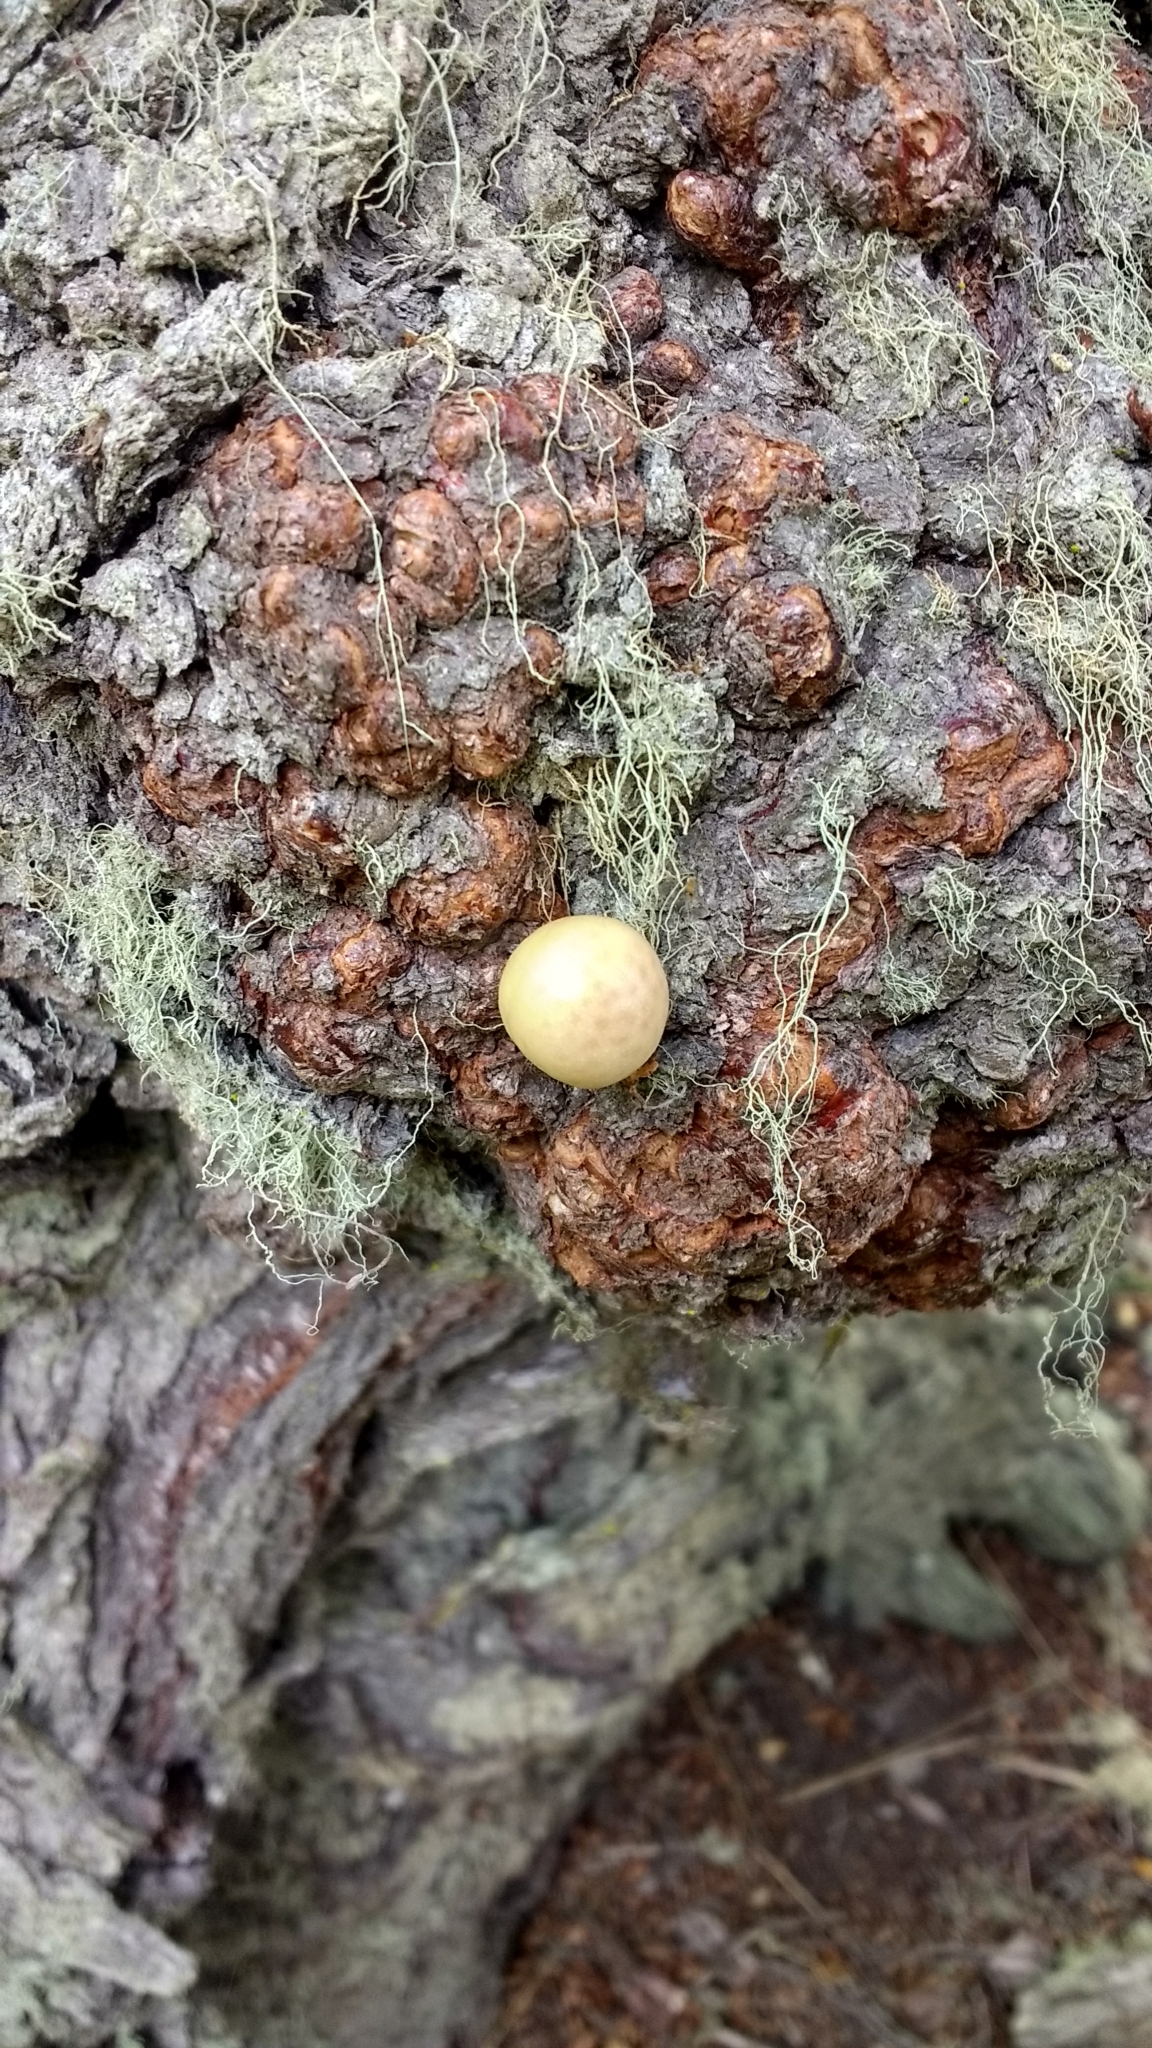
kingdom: Fungi
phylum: Ascomycota
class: Leotiomycetes
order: Cyttariales
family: Cyttariaceae
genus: Cyttaria
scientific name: Cyttaria darwinii
